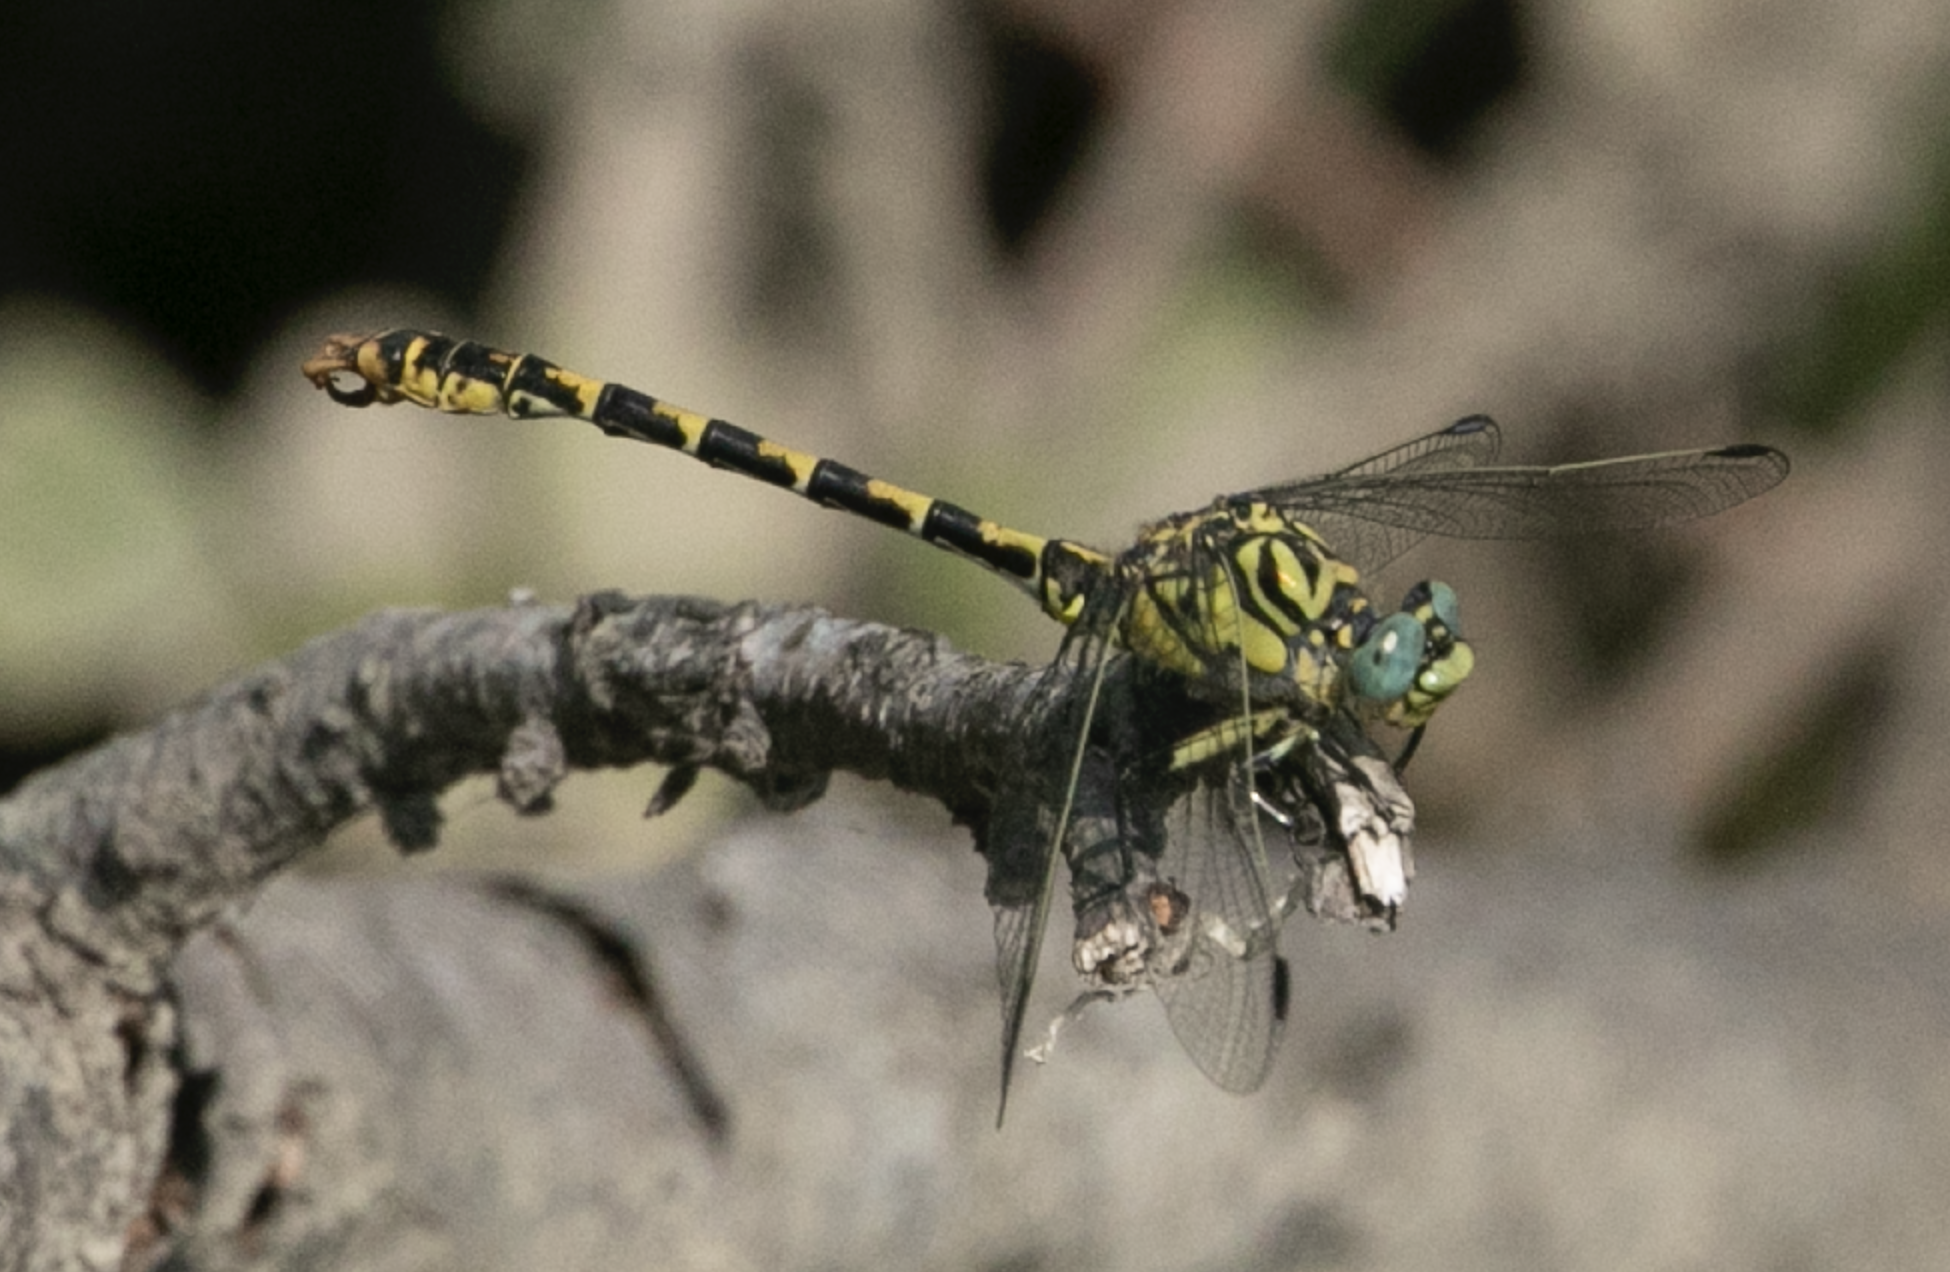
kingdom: Animalia
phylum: Arthropoda
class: Insecta
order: Odonata
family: Gomphidae
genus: Onychogomphus
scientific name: Onychogomphus forcipatus
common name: Small pincertail
